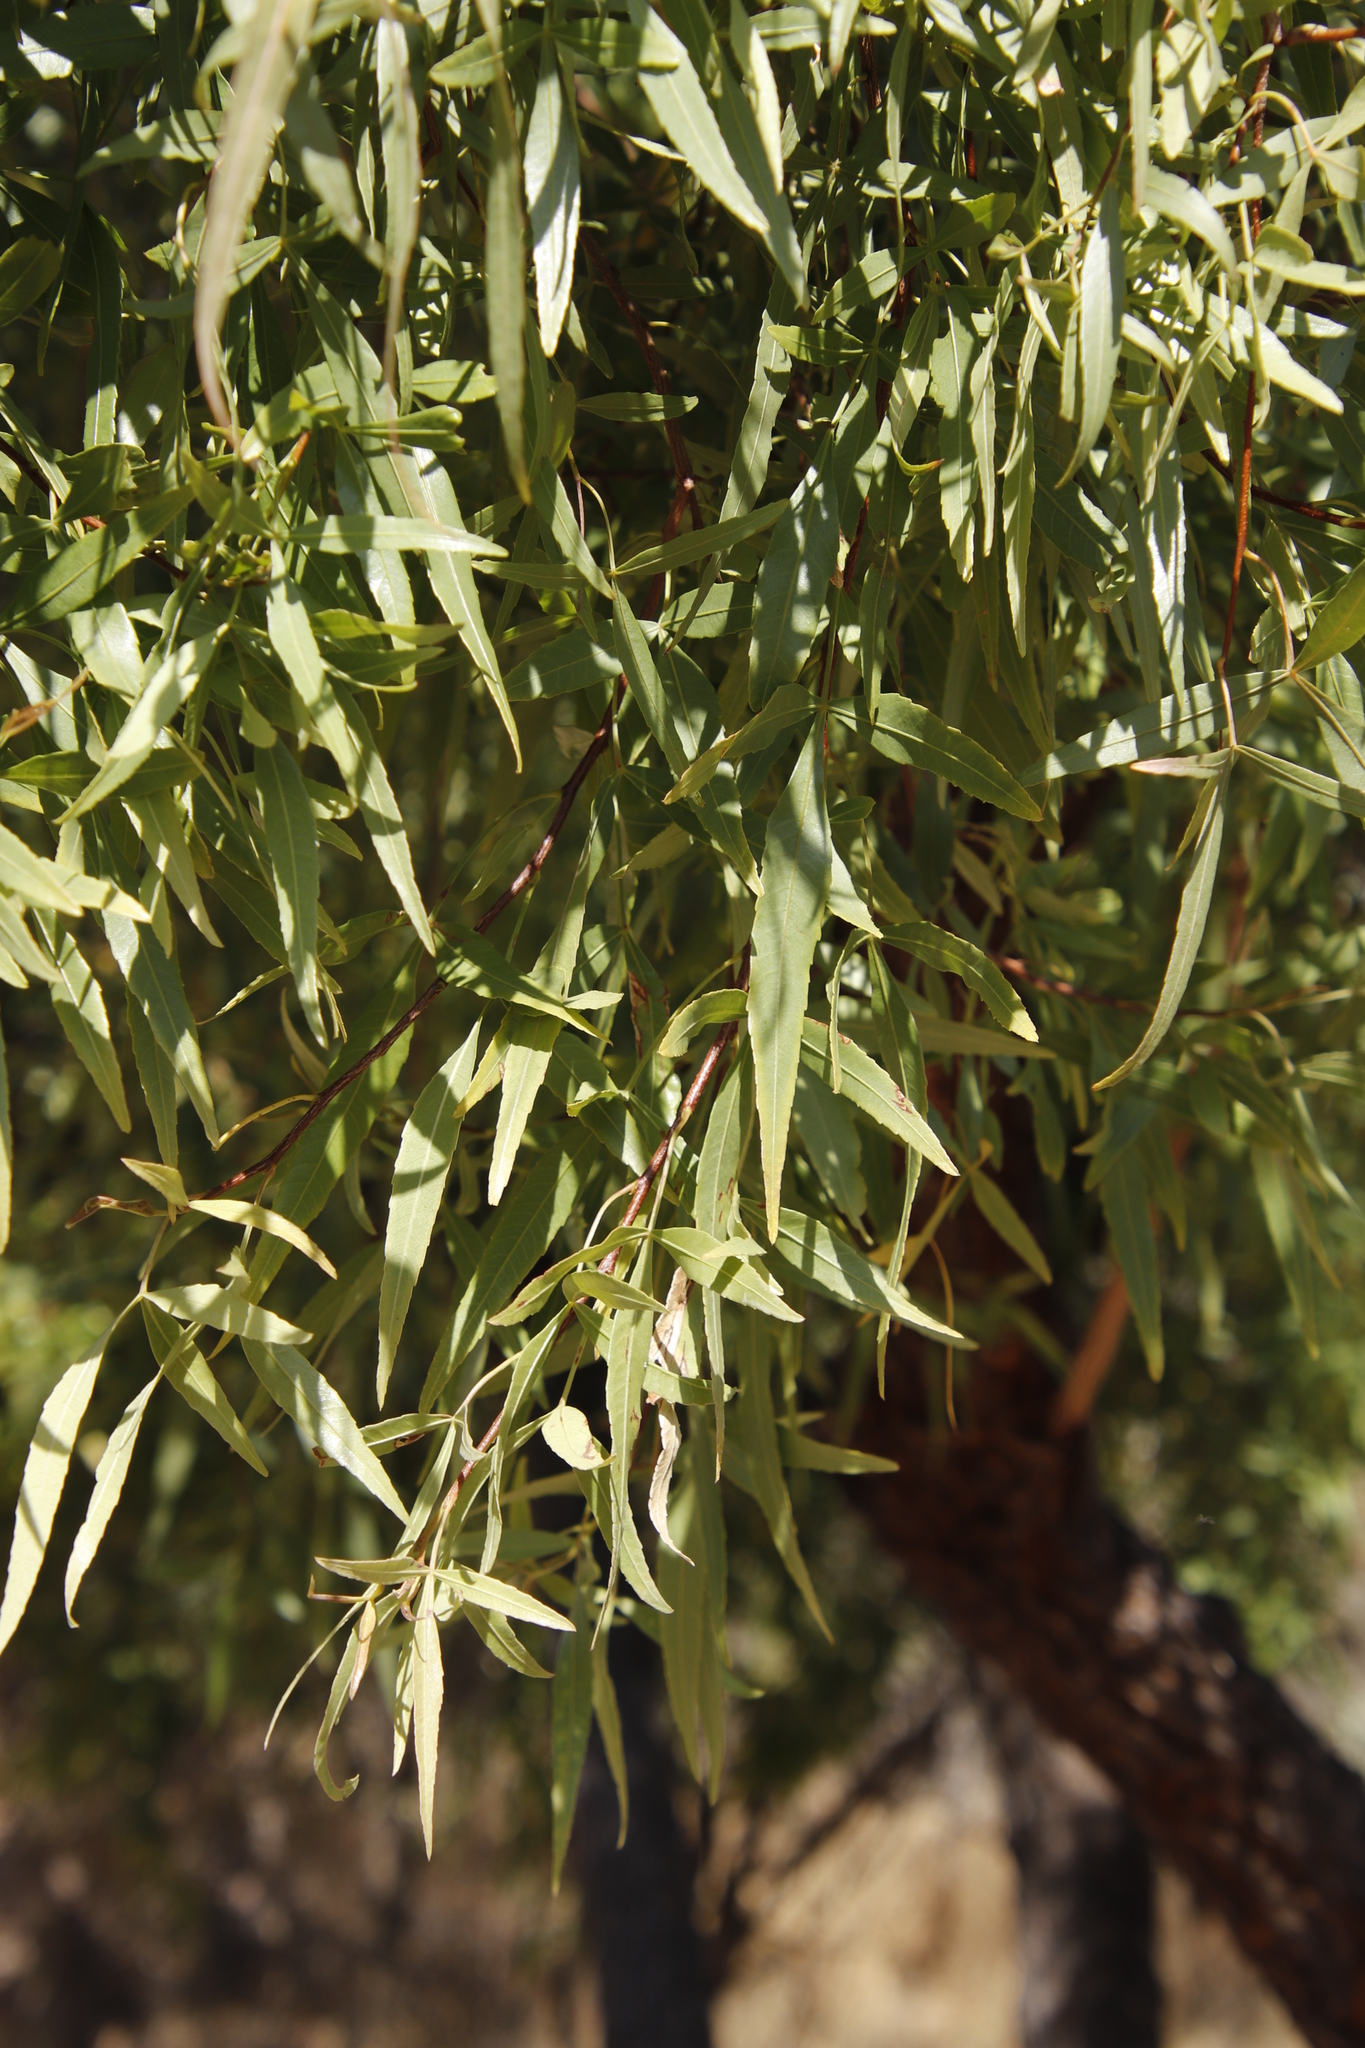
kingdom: Plantae
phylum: Tracheophyta
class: Magnoliopsida
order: Sapindales
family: Anacardiaceae
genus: Searsia
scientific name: Searsia lancea
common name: Cashew
